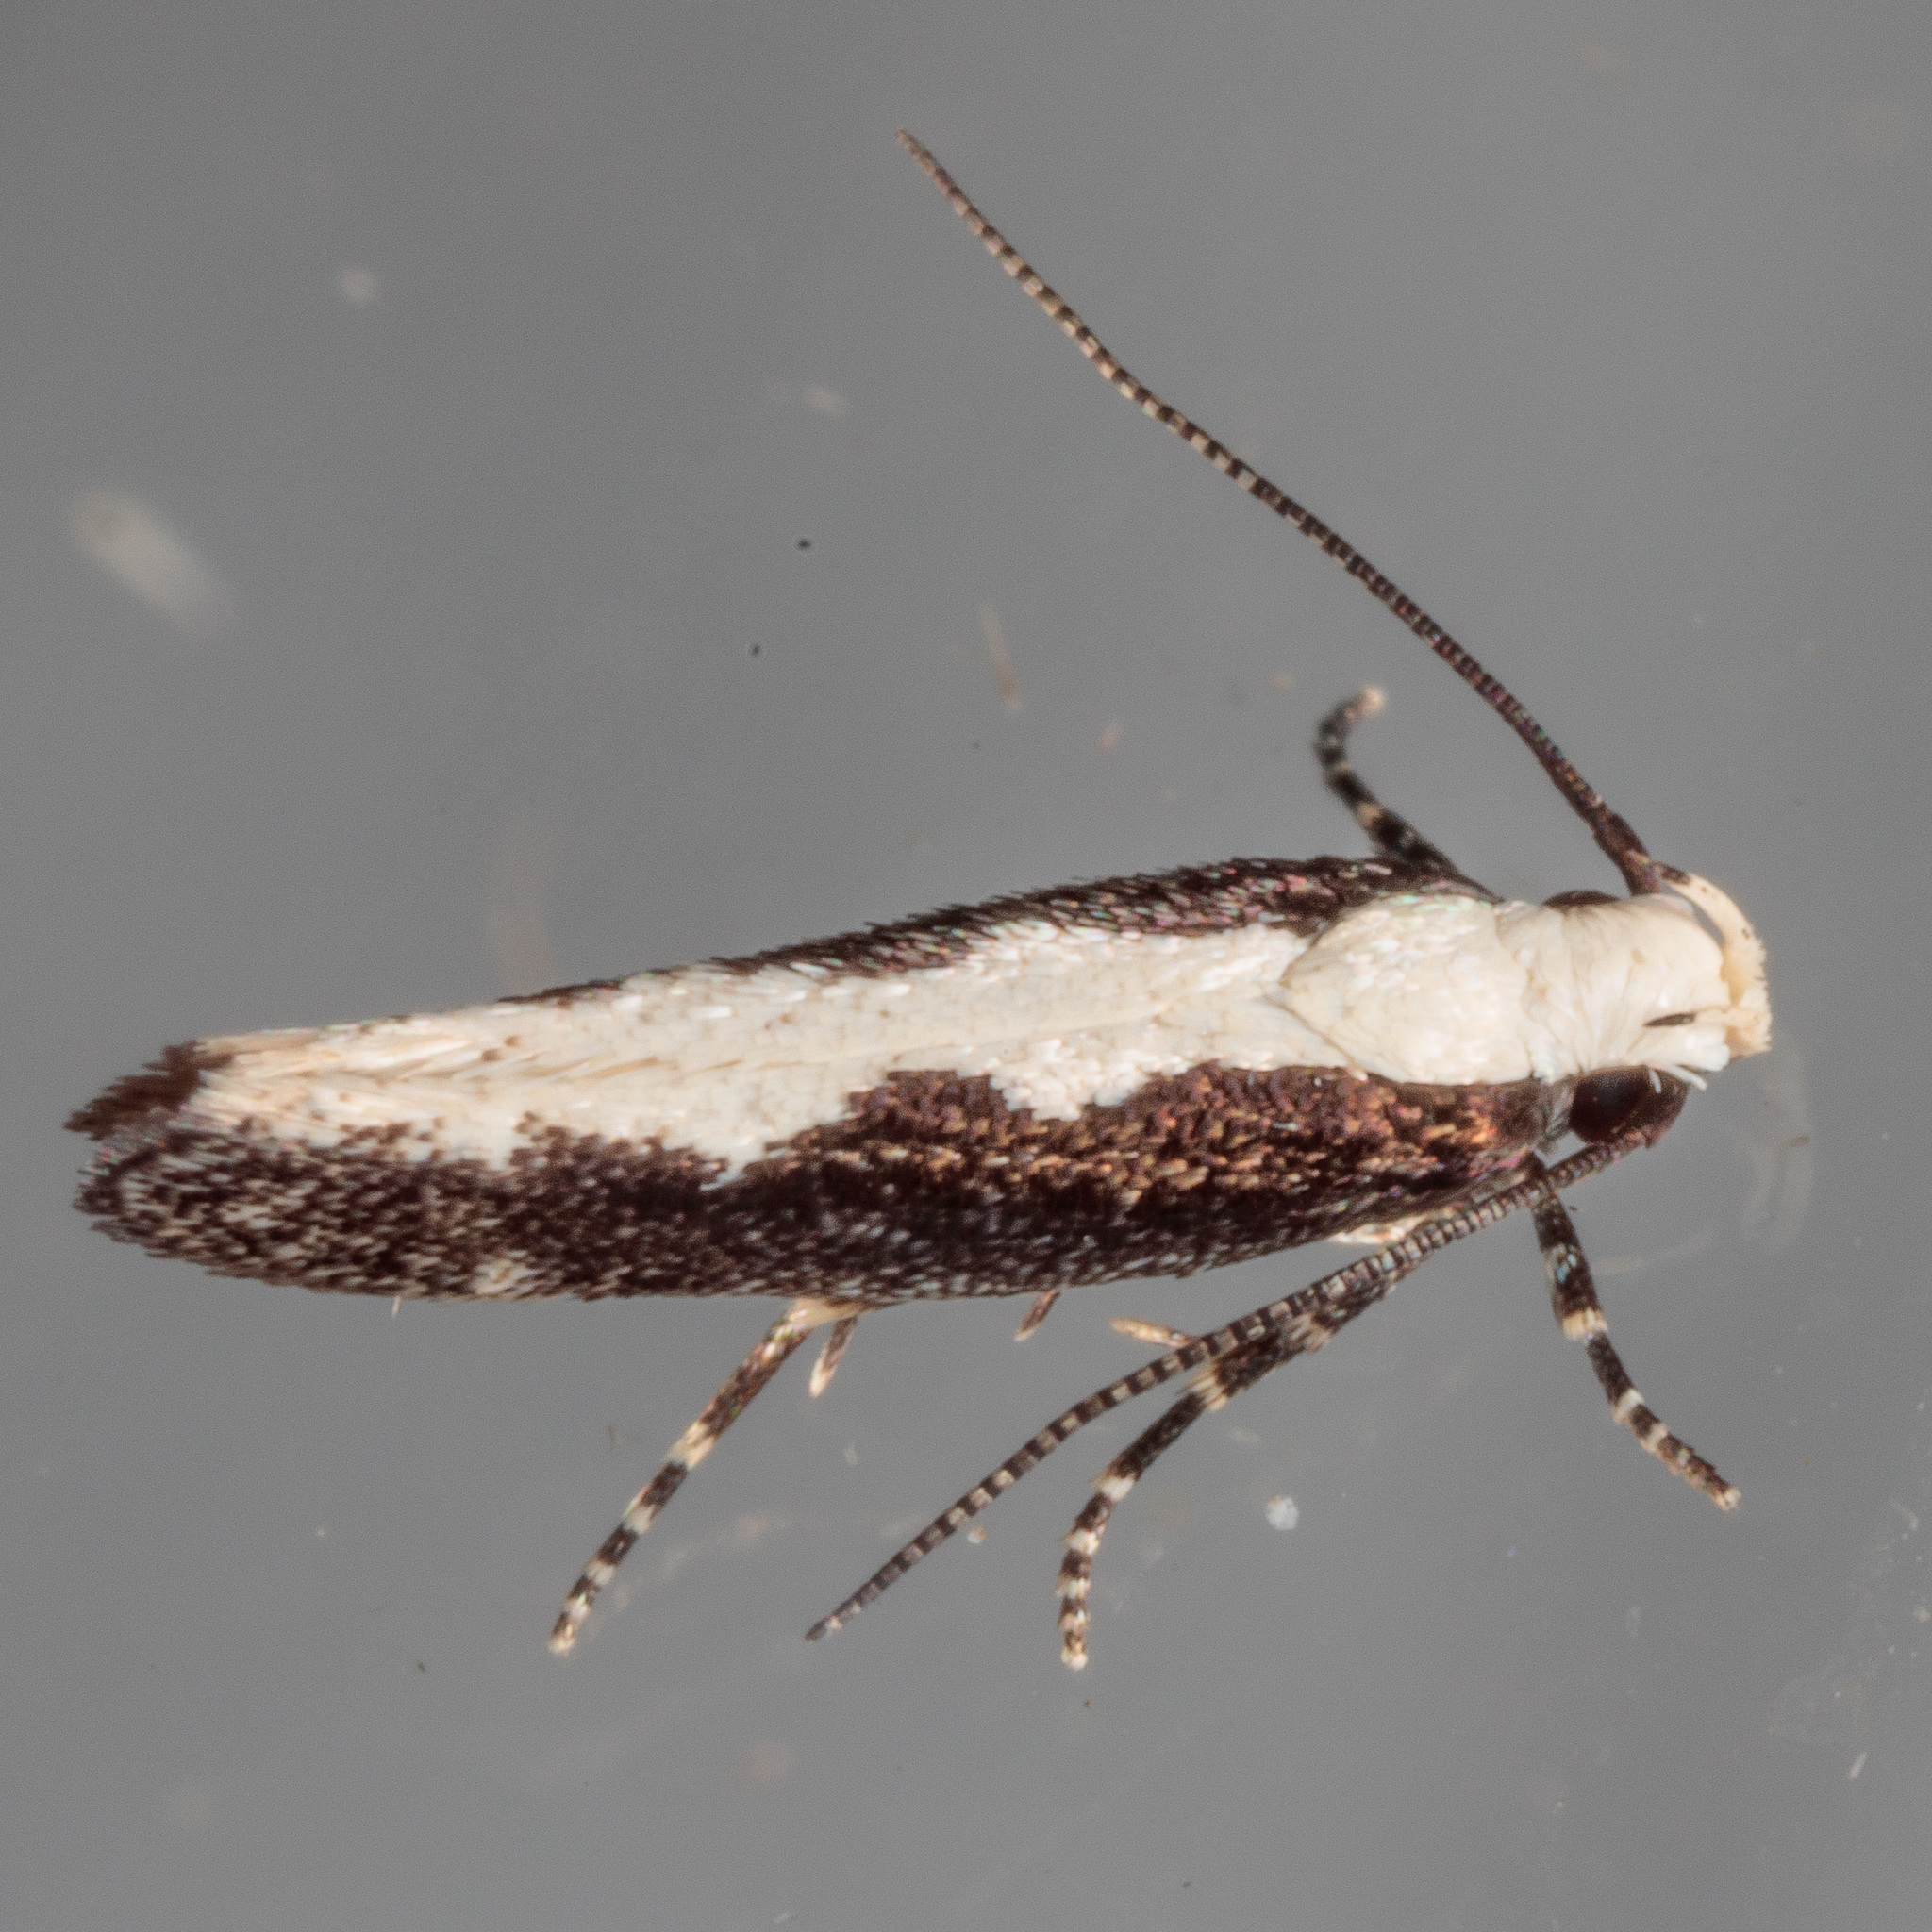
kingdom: Animalia
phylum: Arthropoda
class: Insecta
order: Lepidoptera
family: Gelechiidae
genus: Agnippe
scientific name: Agnippe prunifoliella
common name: Skunk twirler
